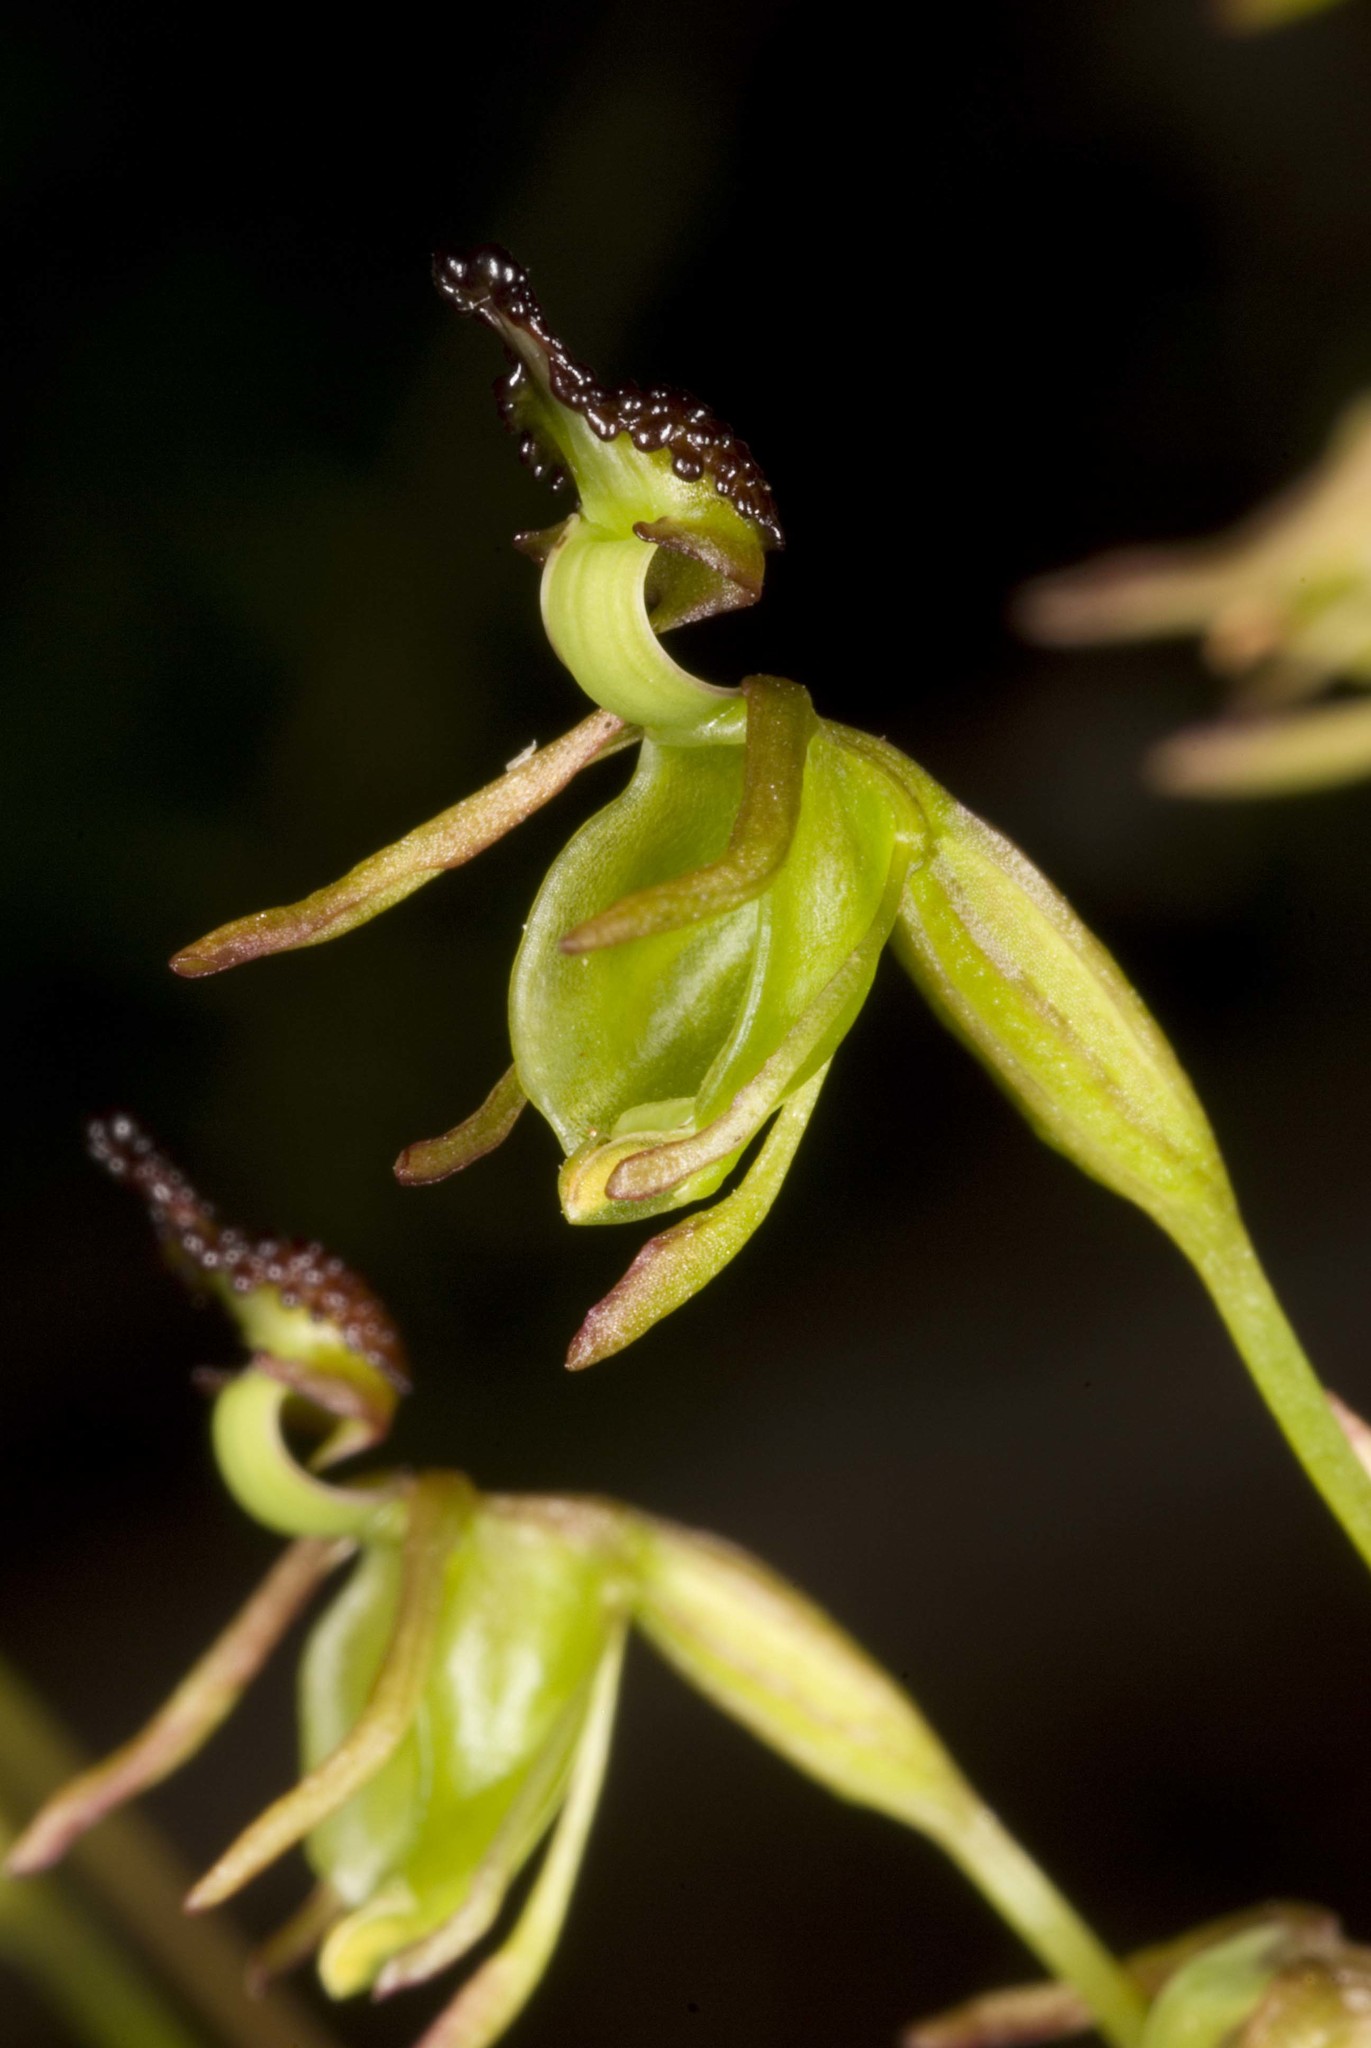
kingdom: Plantae
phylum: Tracheophyta
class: Liliopsida
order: Asparagales
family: Orchidaceae
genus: Caleana
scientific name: Caleana minor
